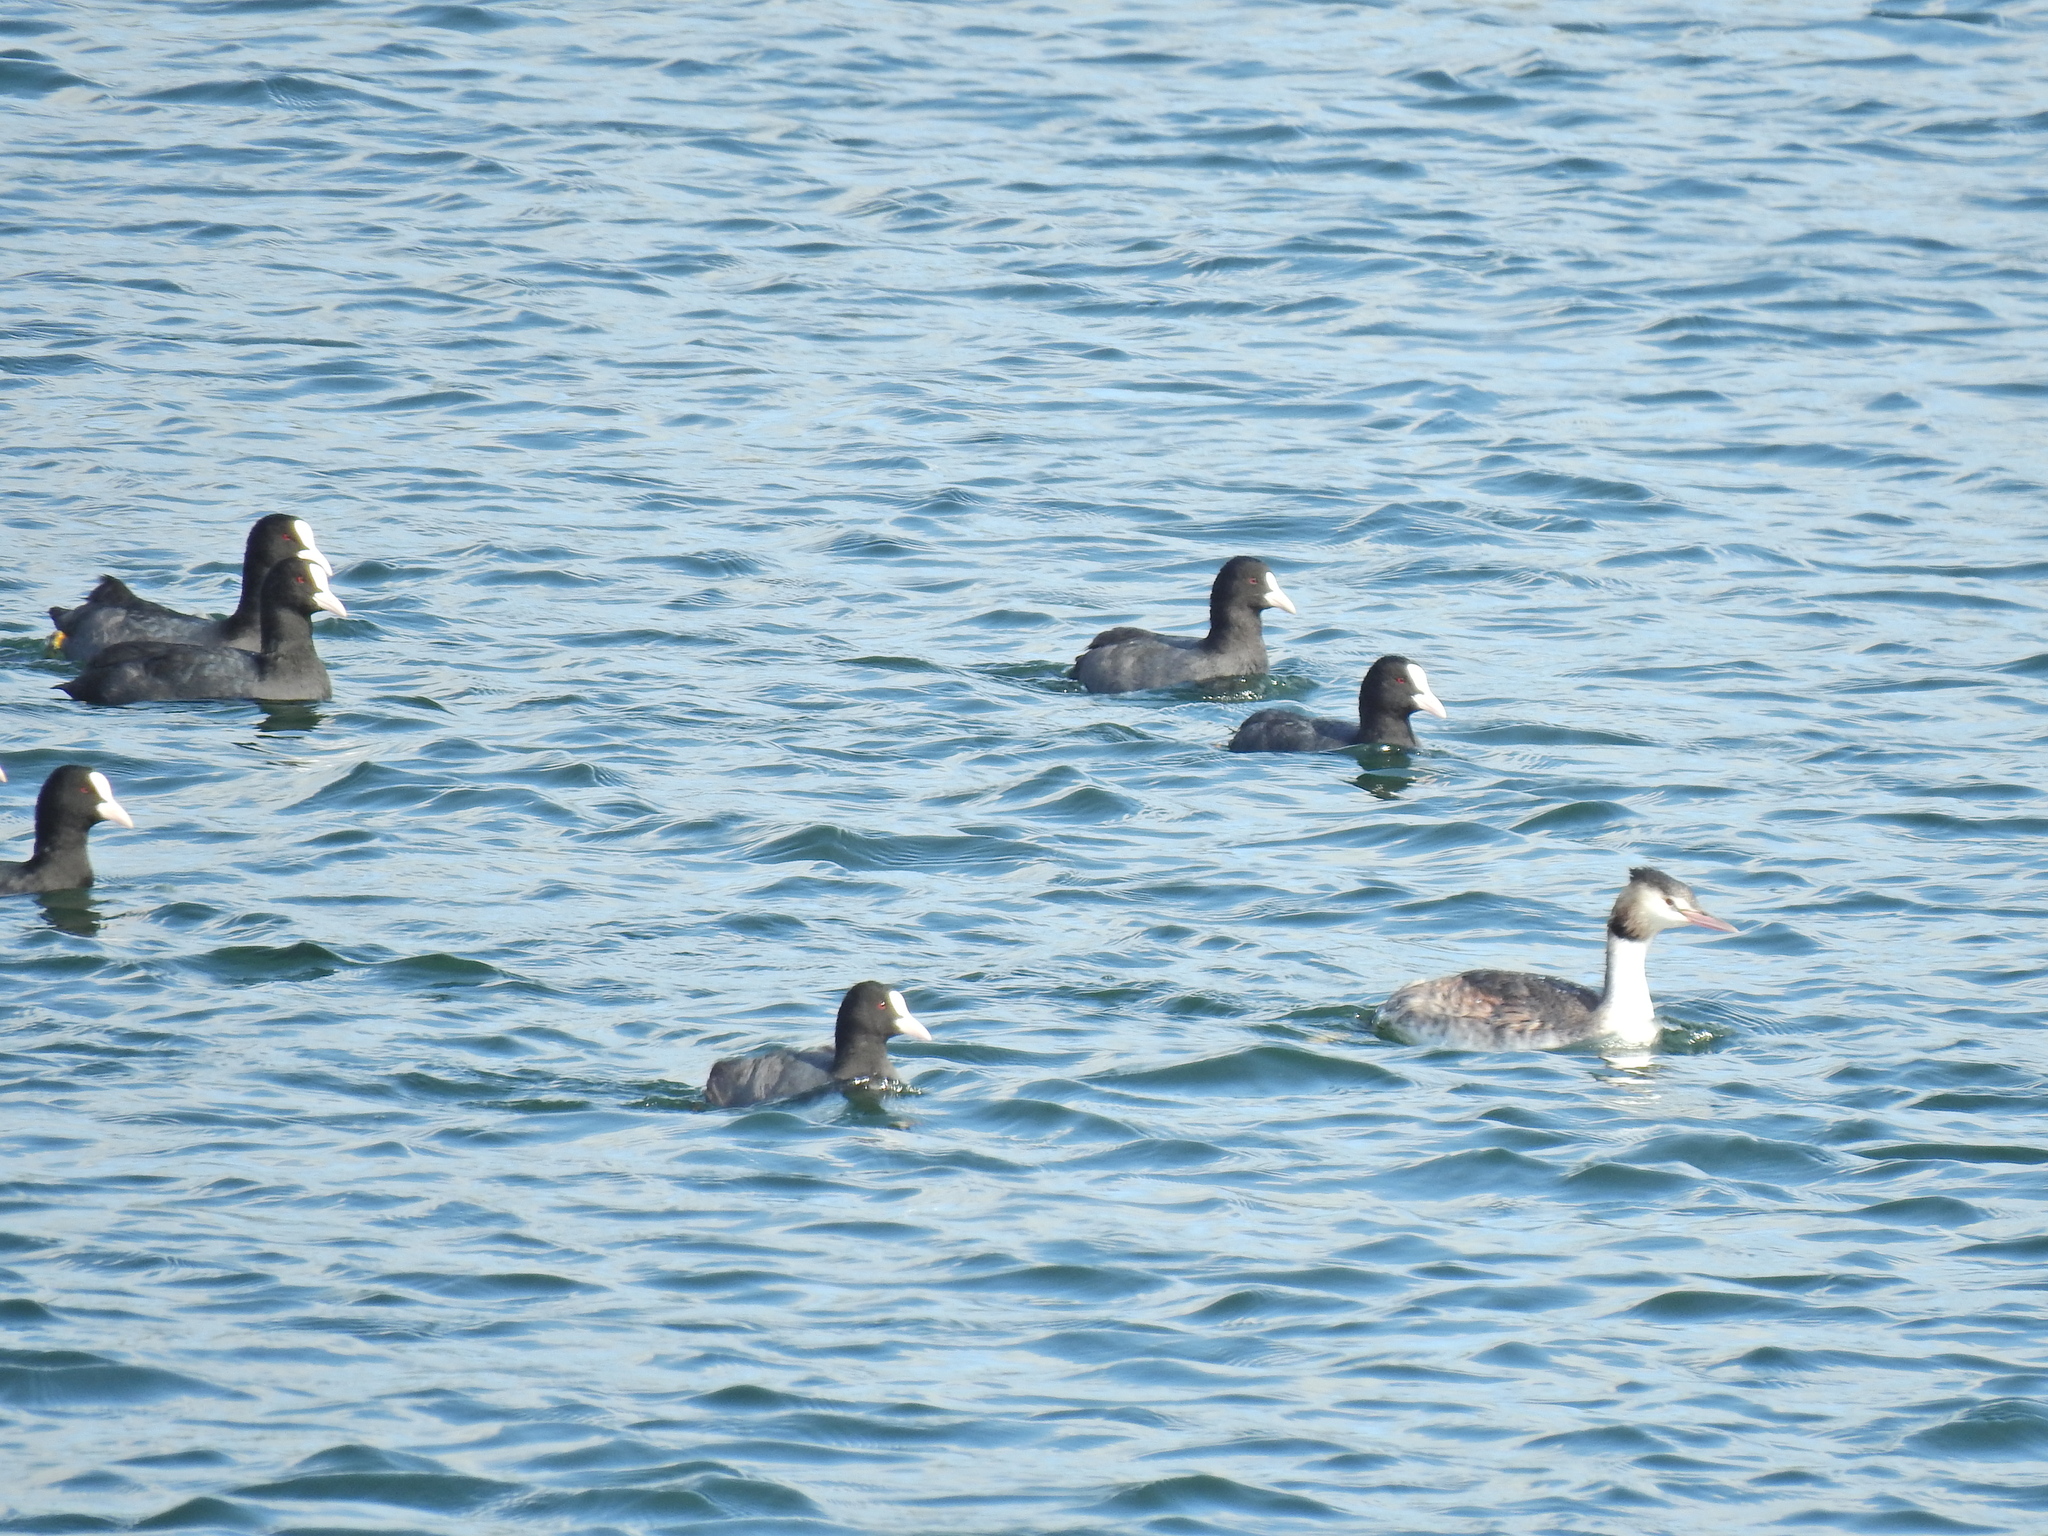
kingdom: Animalia
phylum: Chordata
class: Aves
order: Podicipediformes
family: Podicipedidae
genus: Podiceps
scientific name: Podiceps cristatus
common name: Great crested grebe
